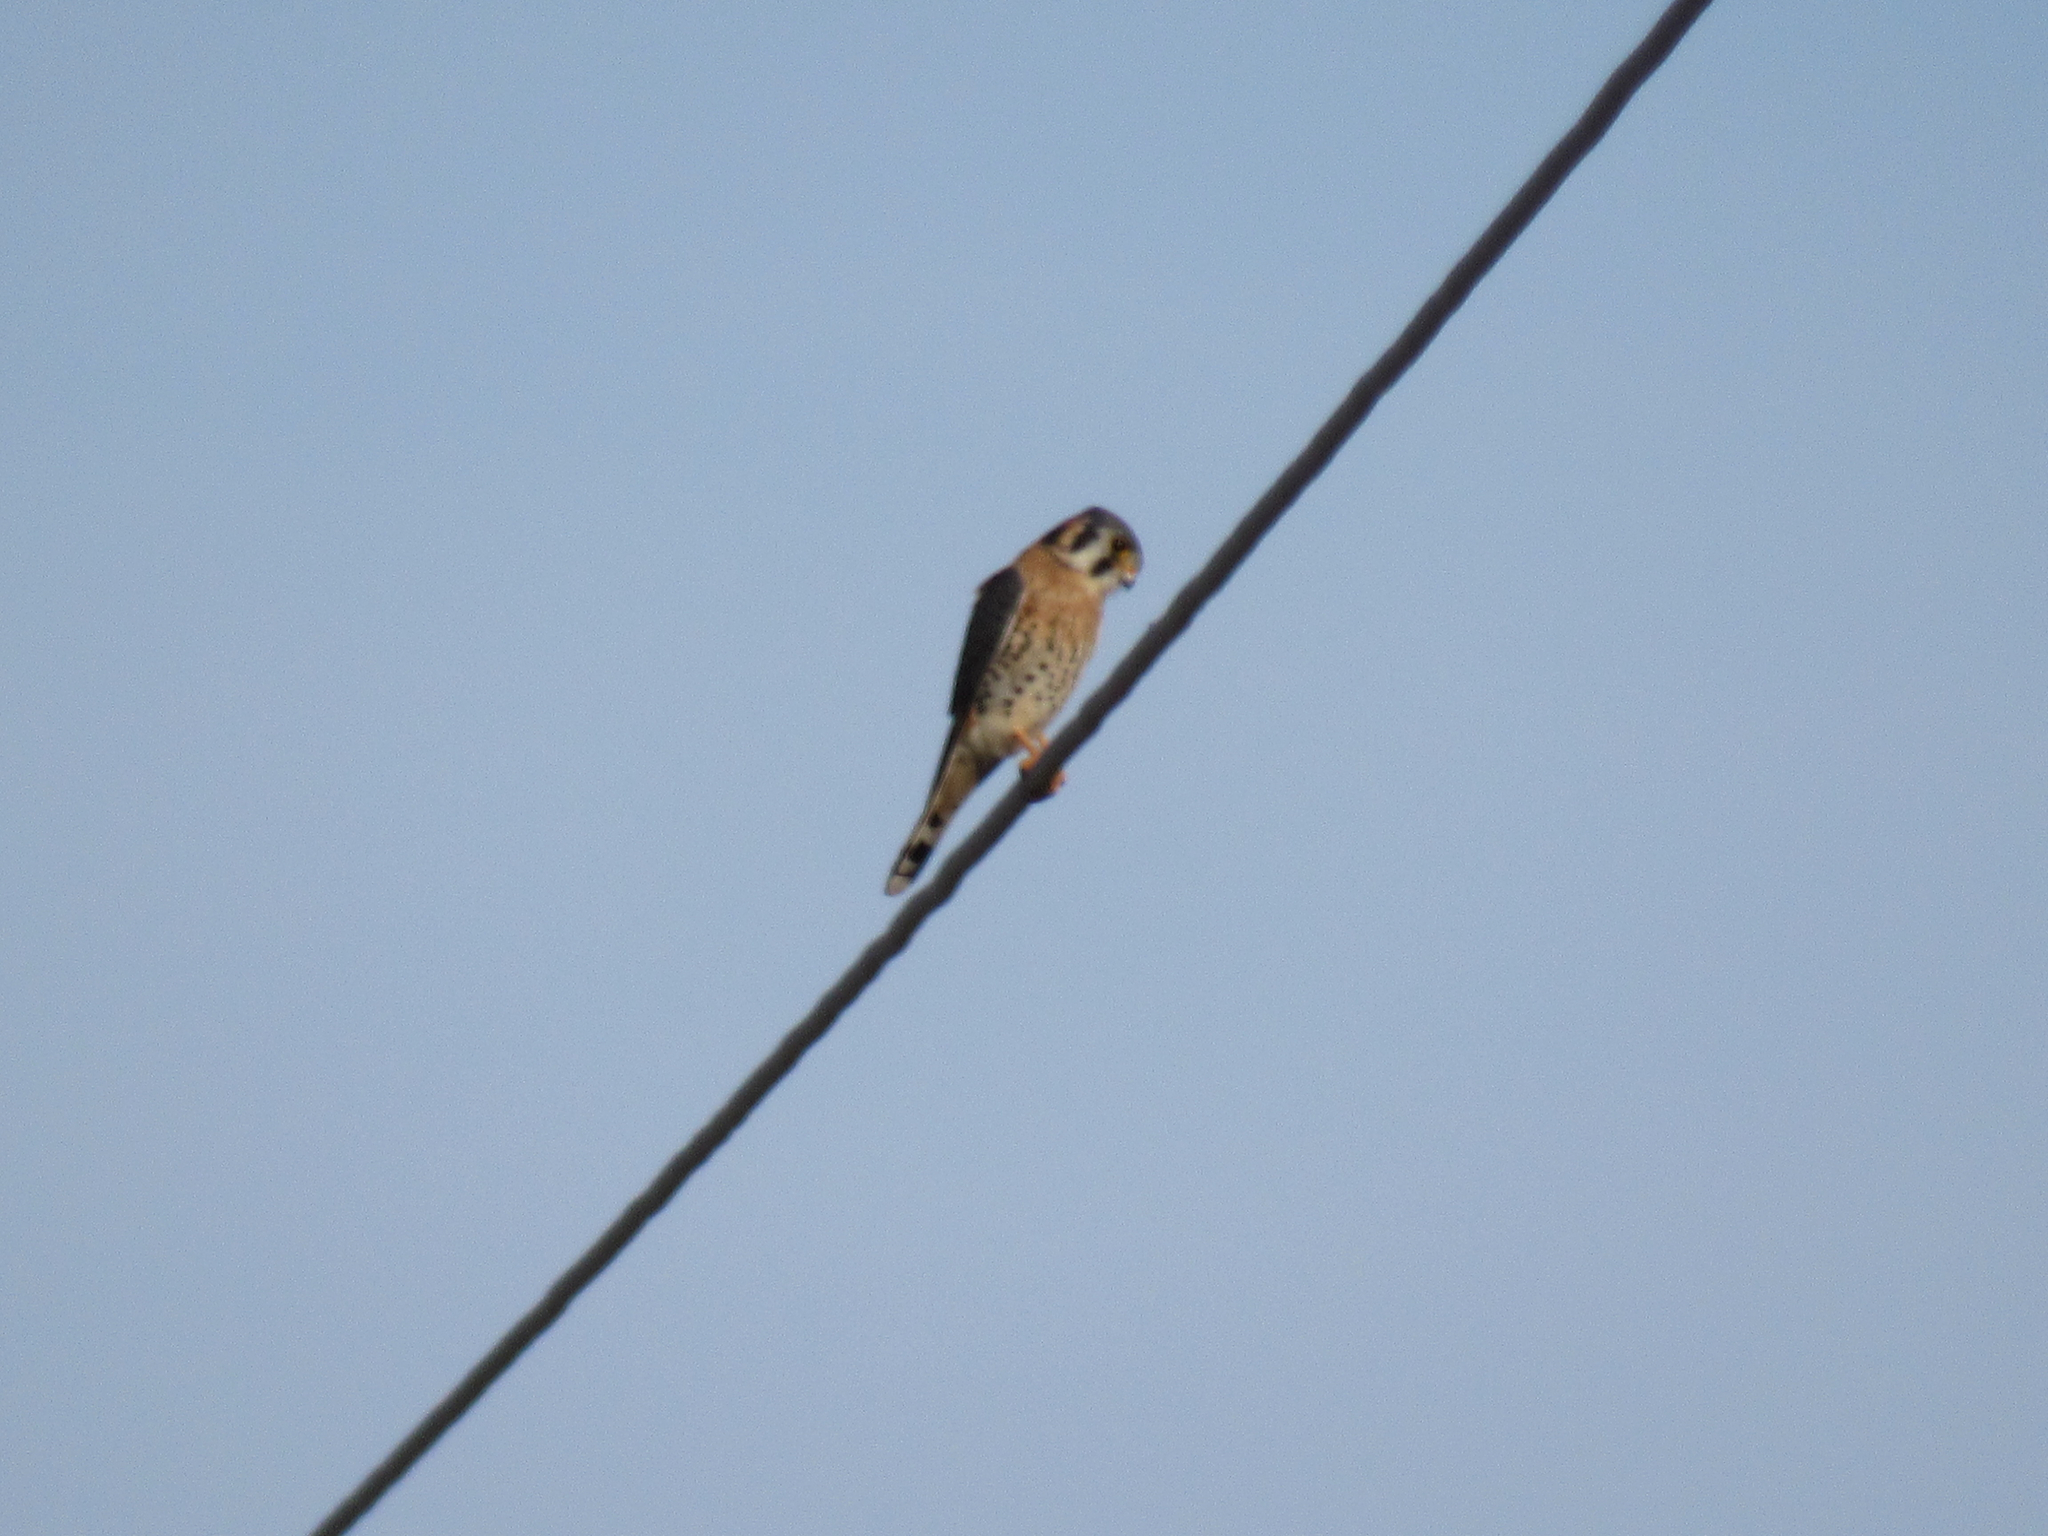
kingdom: Animalia
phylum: Chordata
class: Aves
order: Falconiformes
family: Falconidae
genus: Falco
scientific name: Falco sparverius
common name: American kestrel
